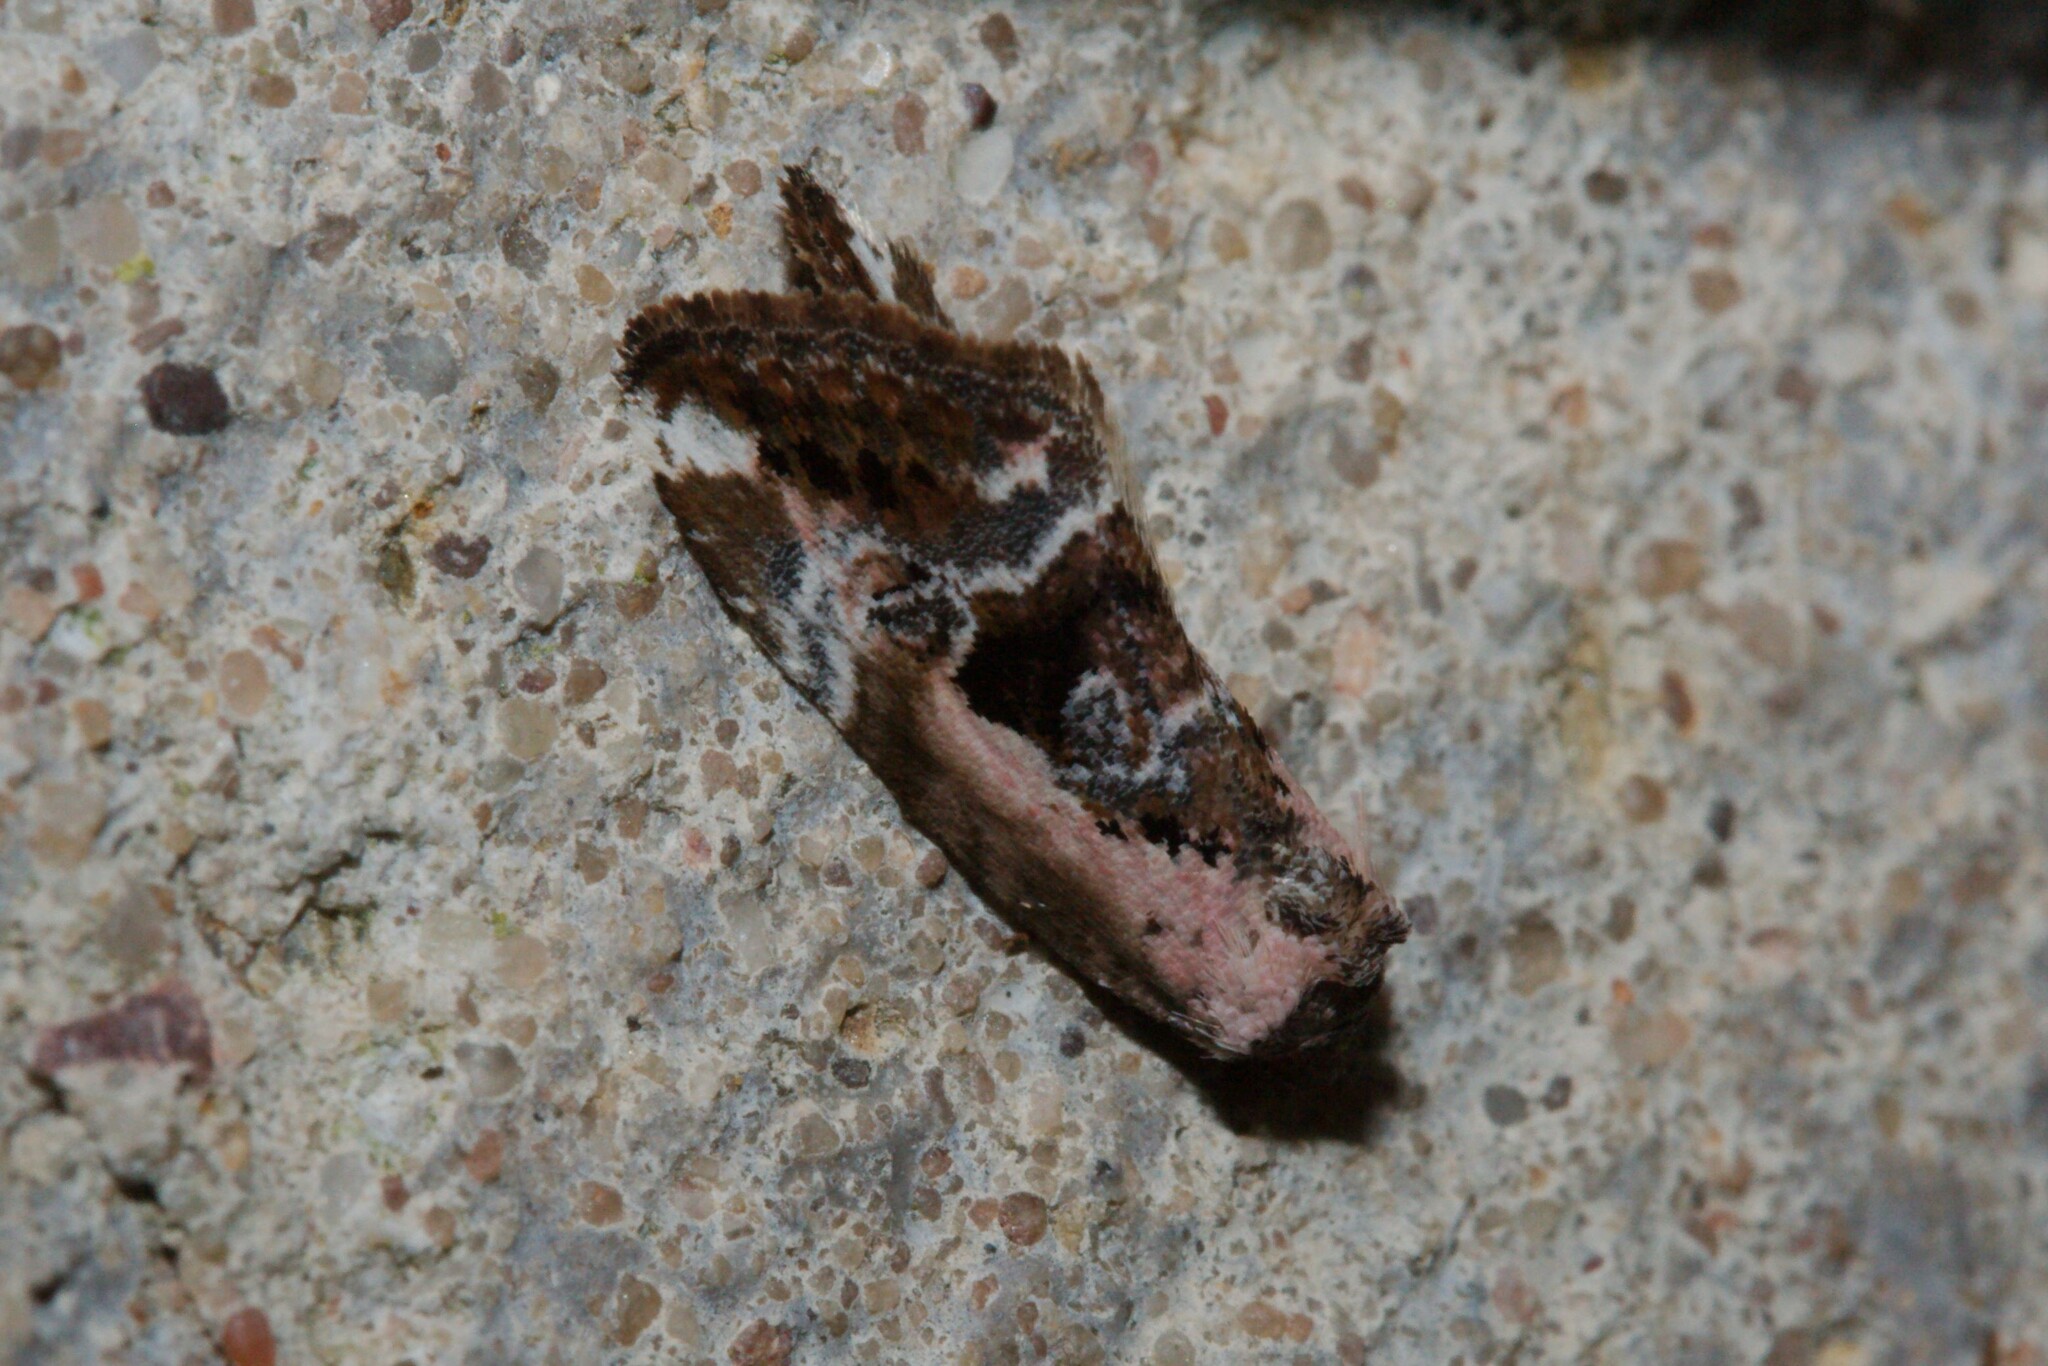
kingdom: Animalia
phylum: Arthropoda
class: Insecta
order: Lepidoptera
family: Noctuidae
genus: Elaphria
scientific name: Elaphria venustula
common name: Rosy marbled
